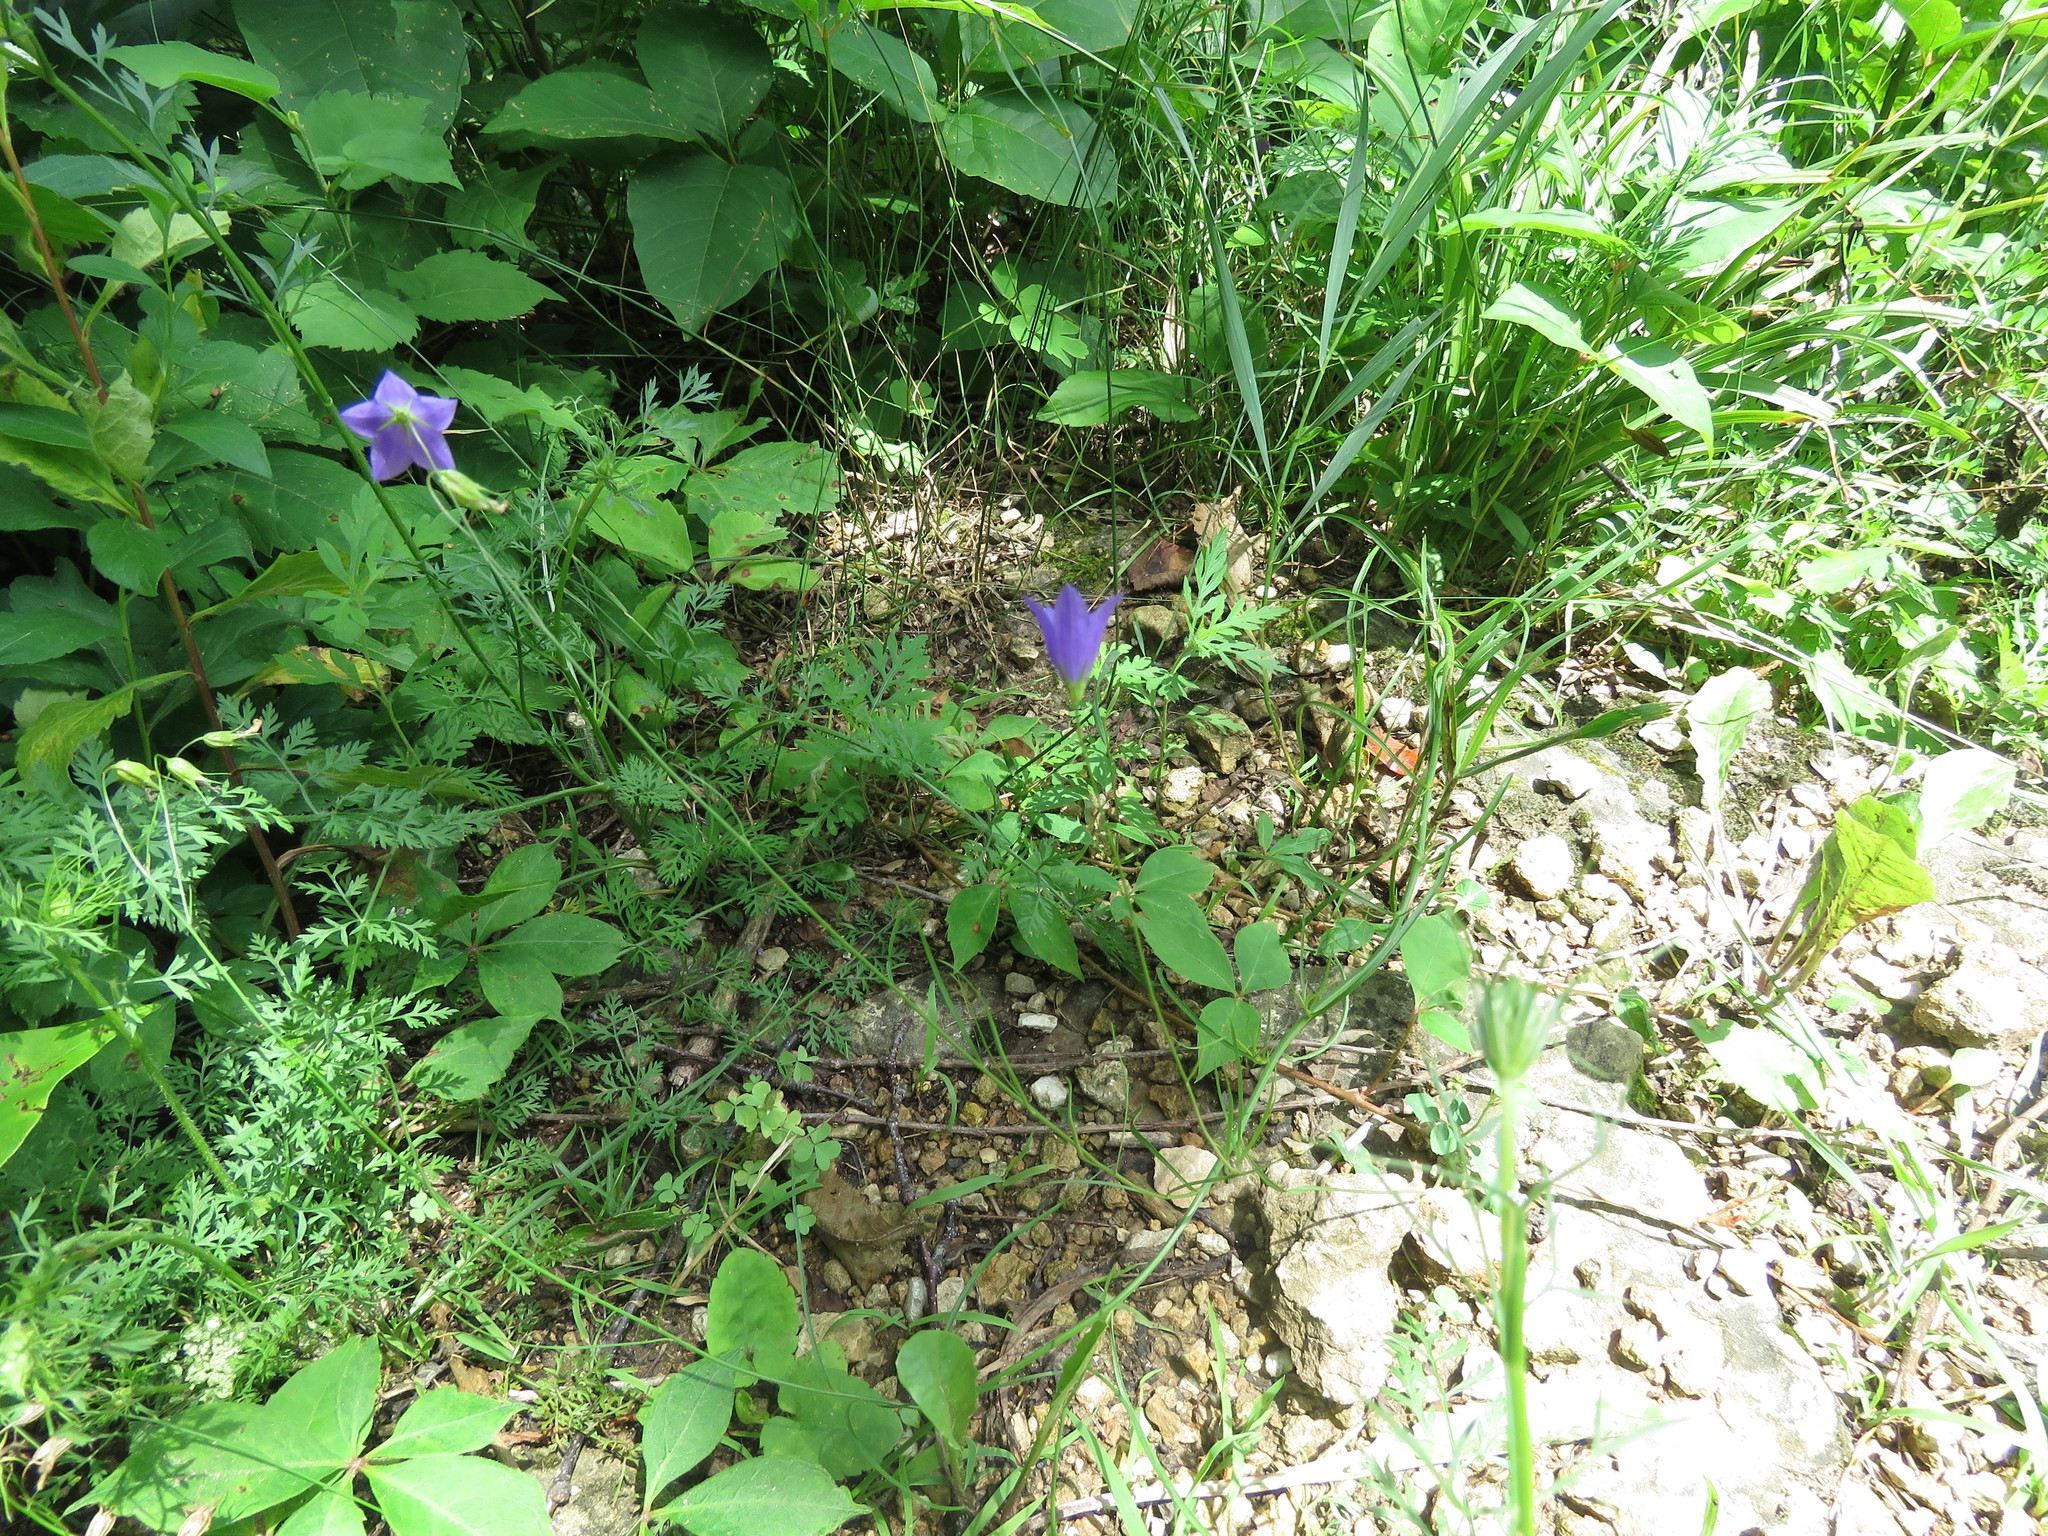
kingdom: Plantae
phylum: Tracheophyta
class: Magnoliopsida
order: Asterales
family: Campanulaceae
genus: Campanula
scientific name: Campanula intercedens
